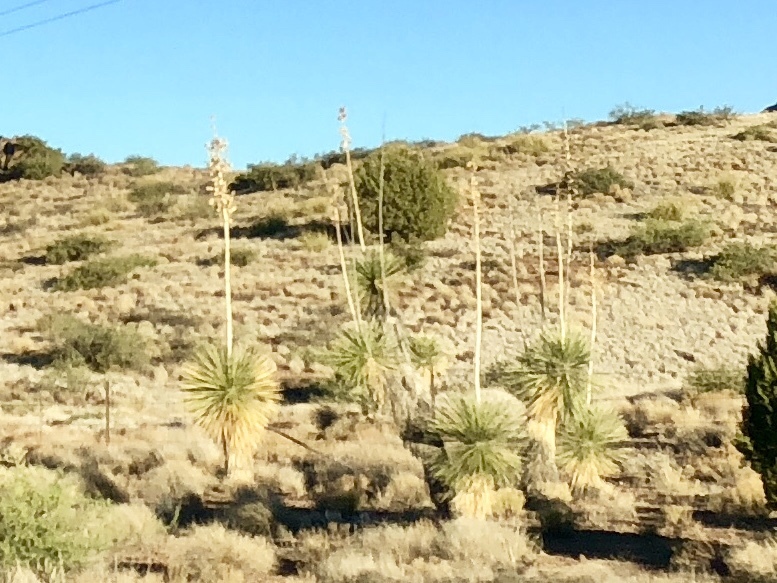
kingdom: Plantae
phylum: Tracheophyta
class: Liliopsida
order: Asparagales
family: Asparagaceae
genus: Yucca
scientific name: Yucca elata
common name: Palmella
